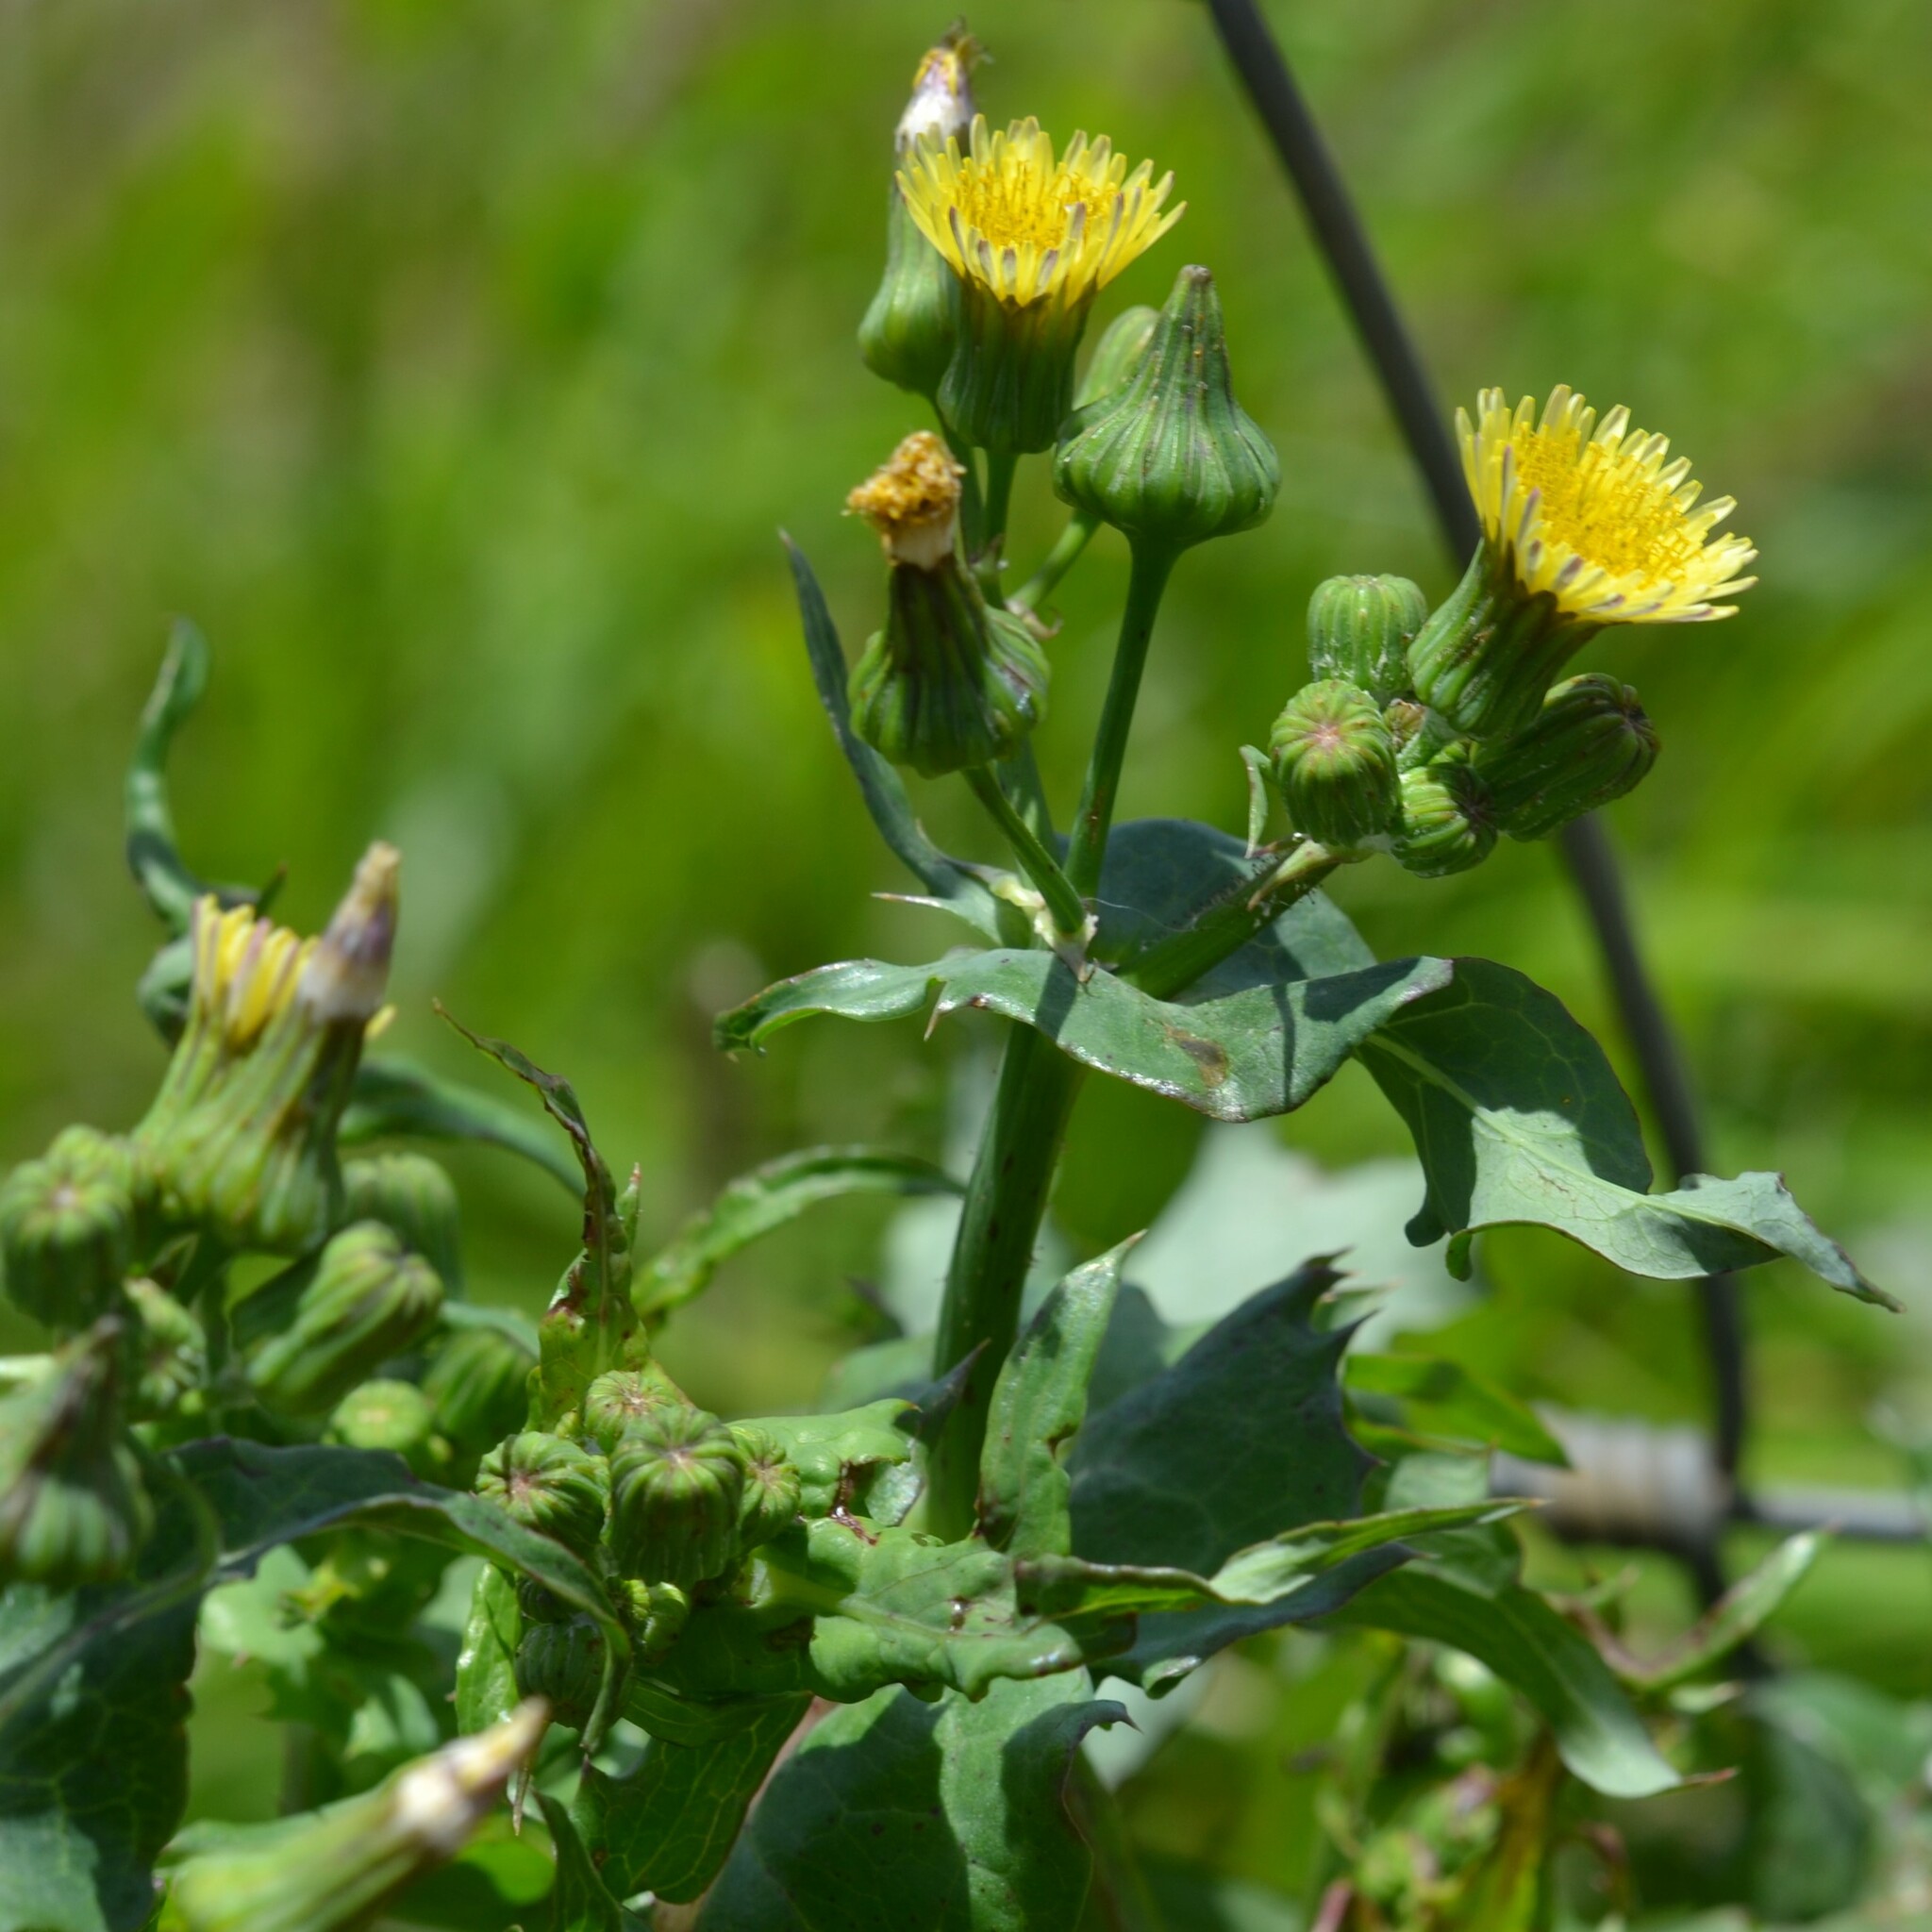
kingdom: Plantae
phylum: Tracheophyta
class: Magnoliopsida
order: Asterales
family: Asteraceae
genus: Sonchus
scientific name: Sonchus oleraceus
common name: Common sowthistle
